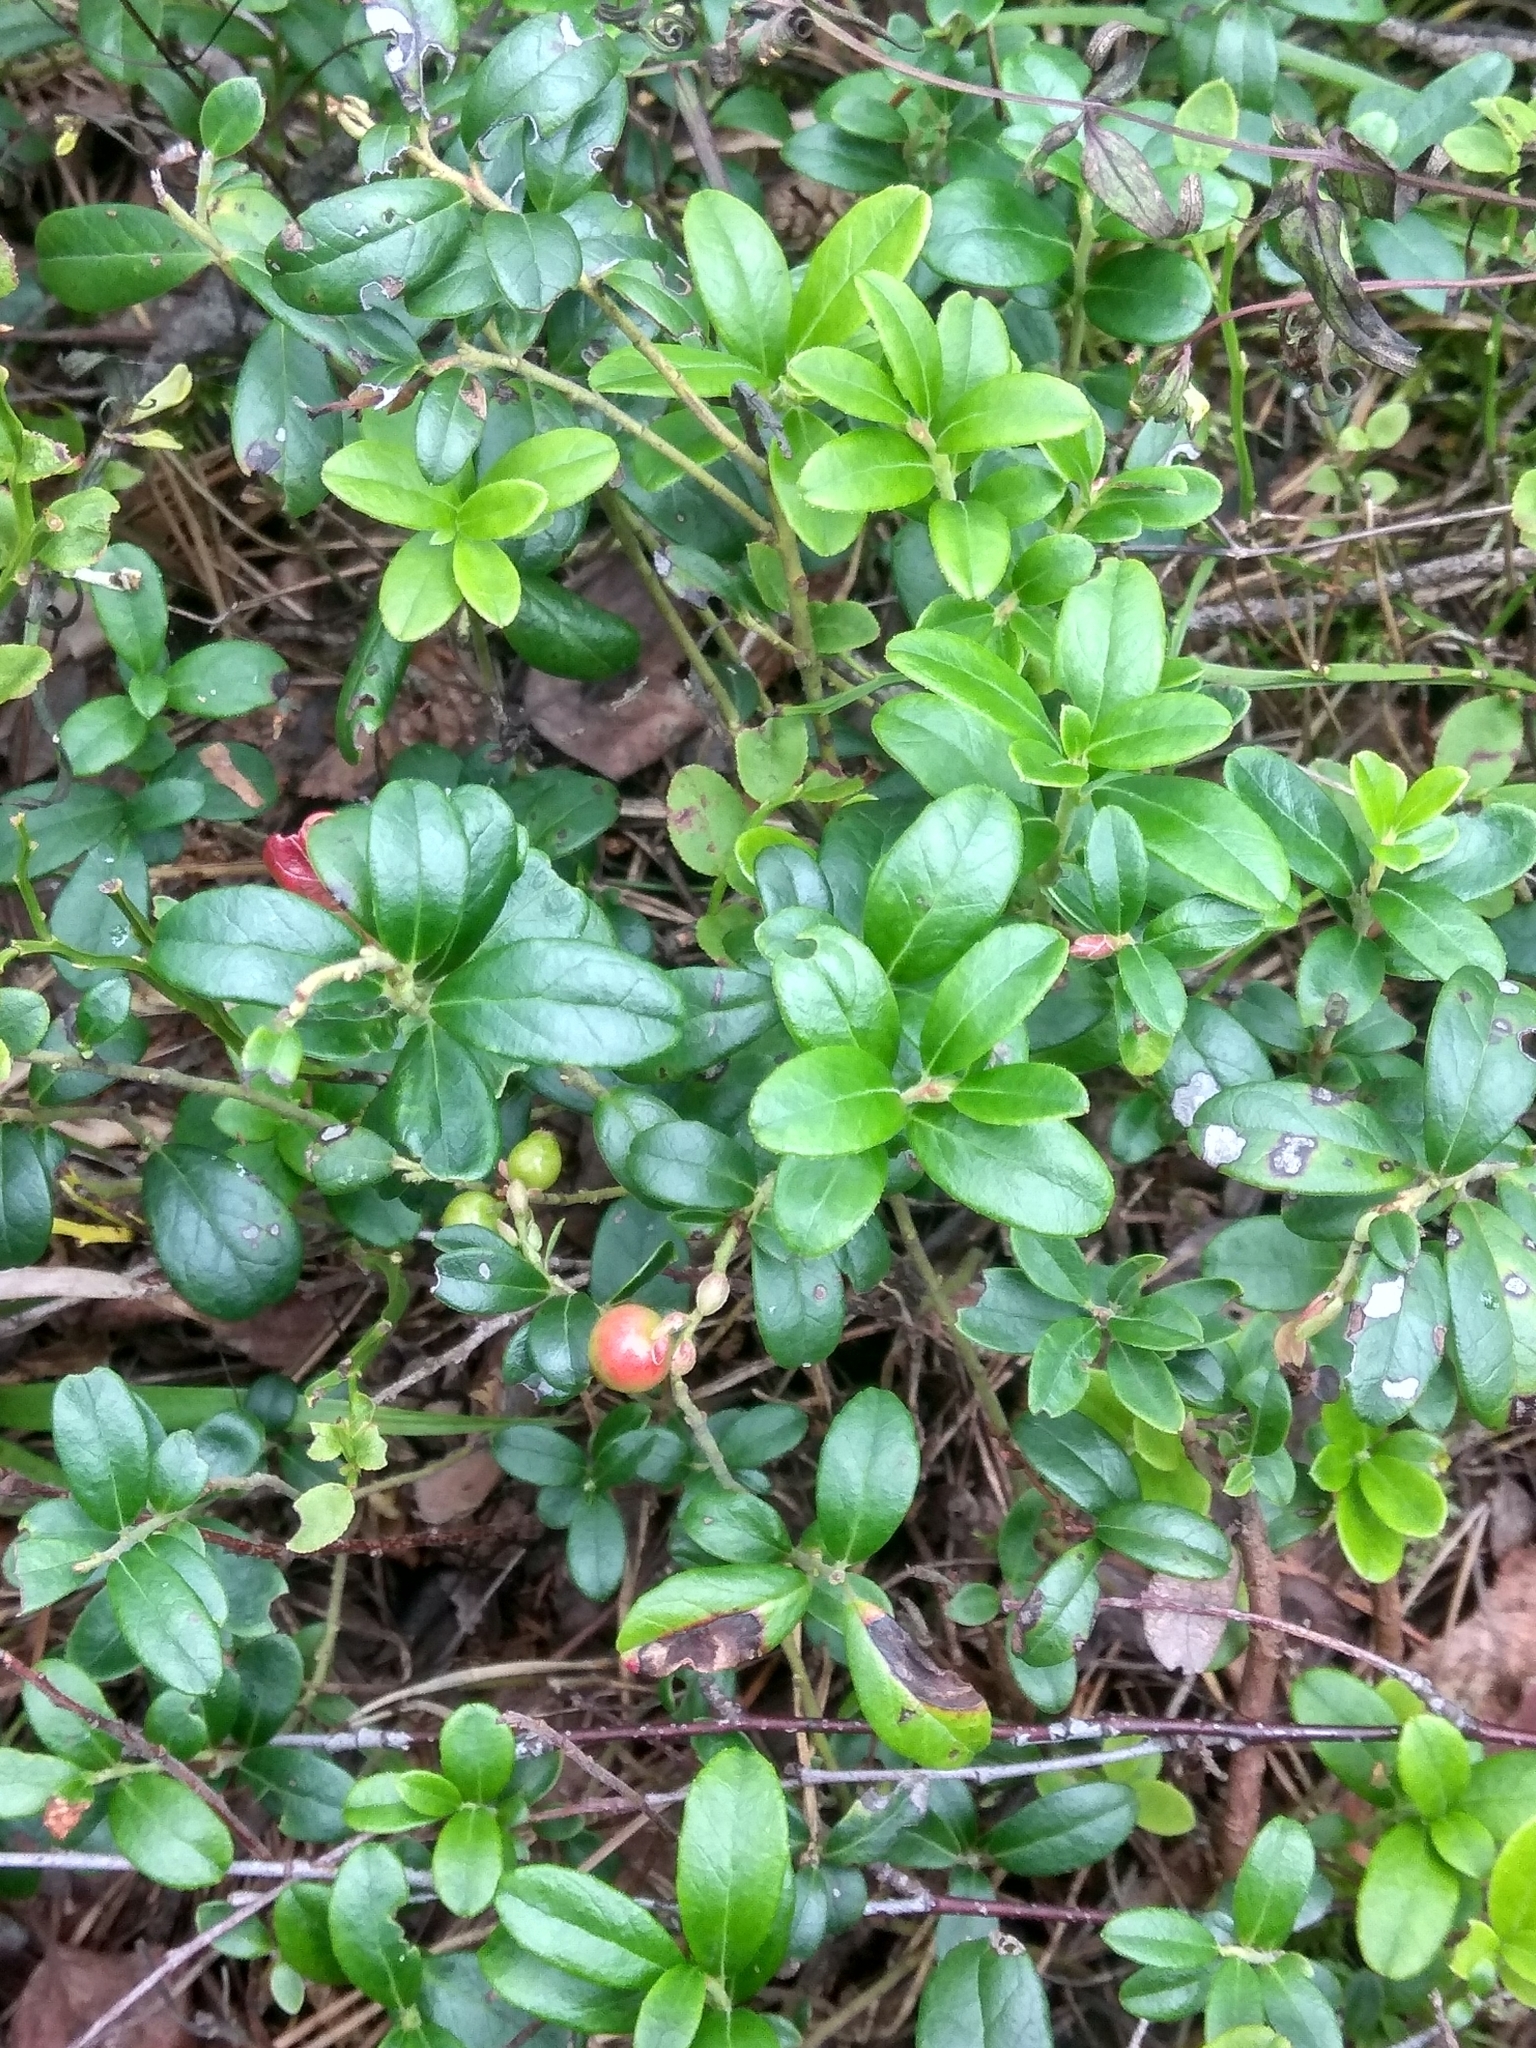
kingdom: Plantae
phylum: Tracheophyta
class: Magnoliopsida
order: Ericales
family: Ericaceae
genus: Vaccinium
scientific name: Vaccinium vitis-idaea
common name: Cowberry
